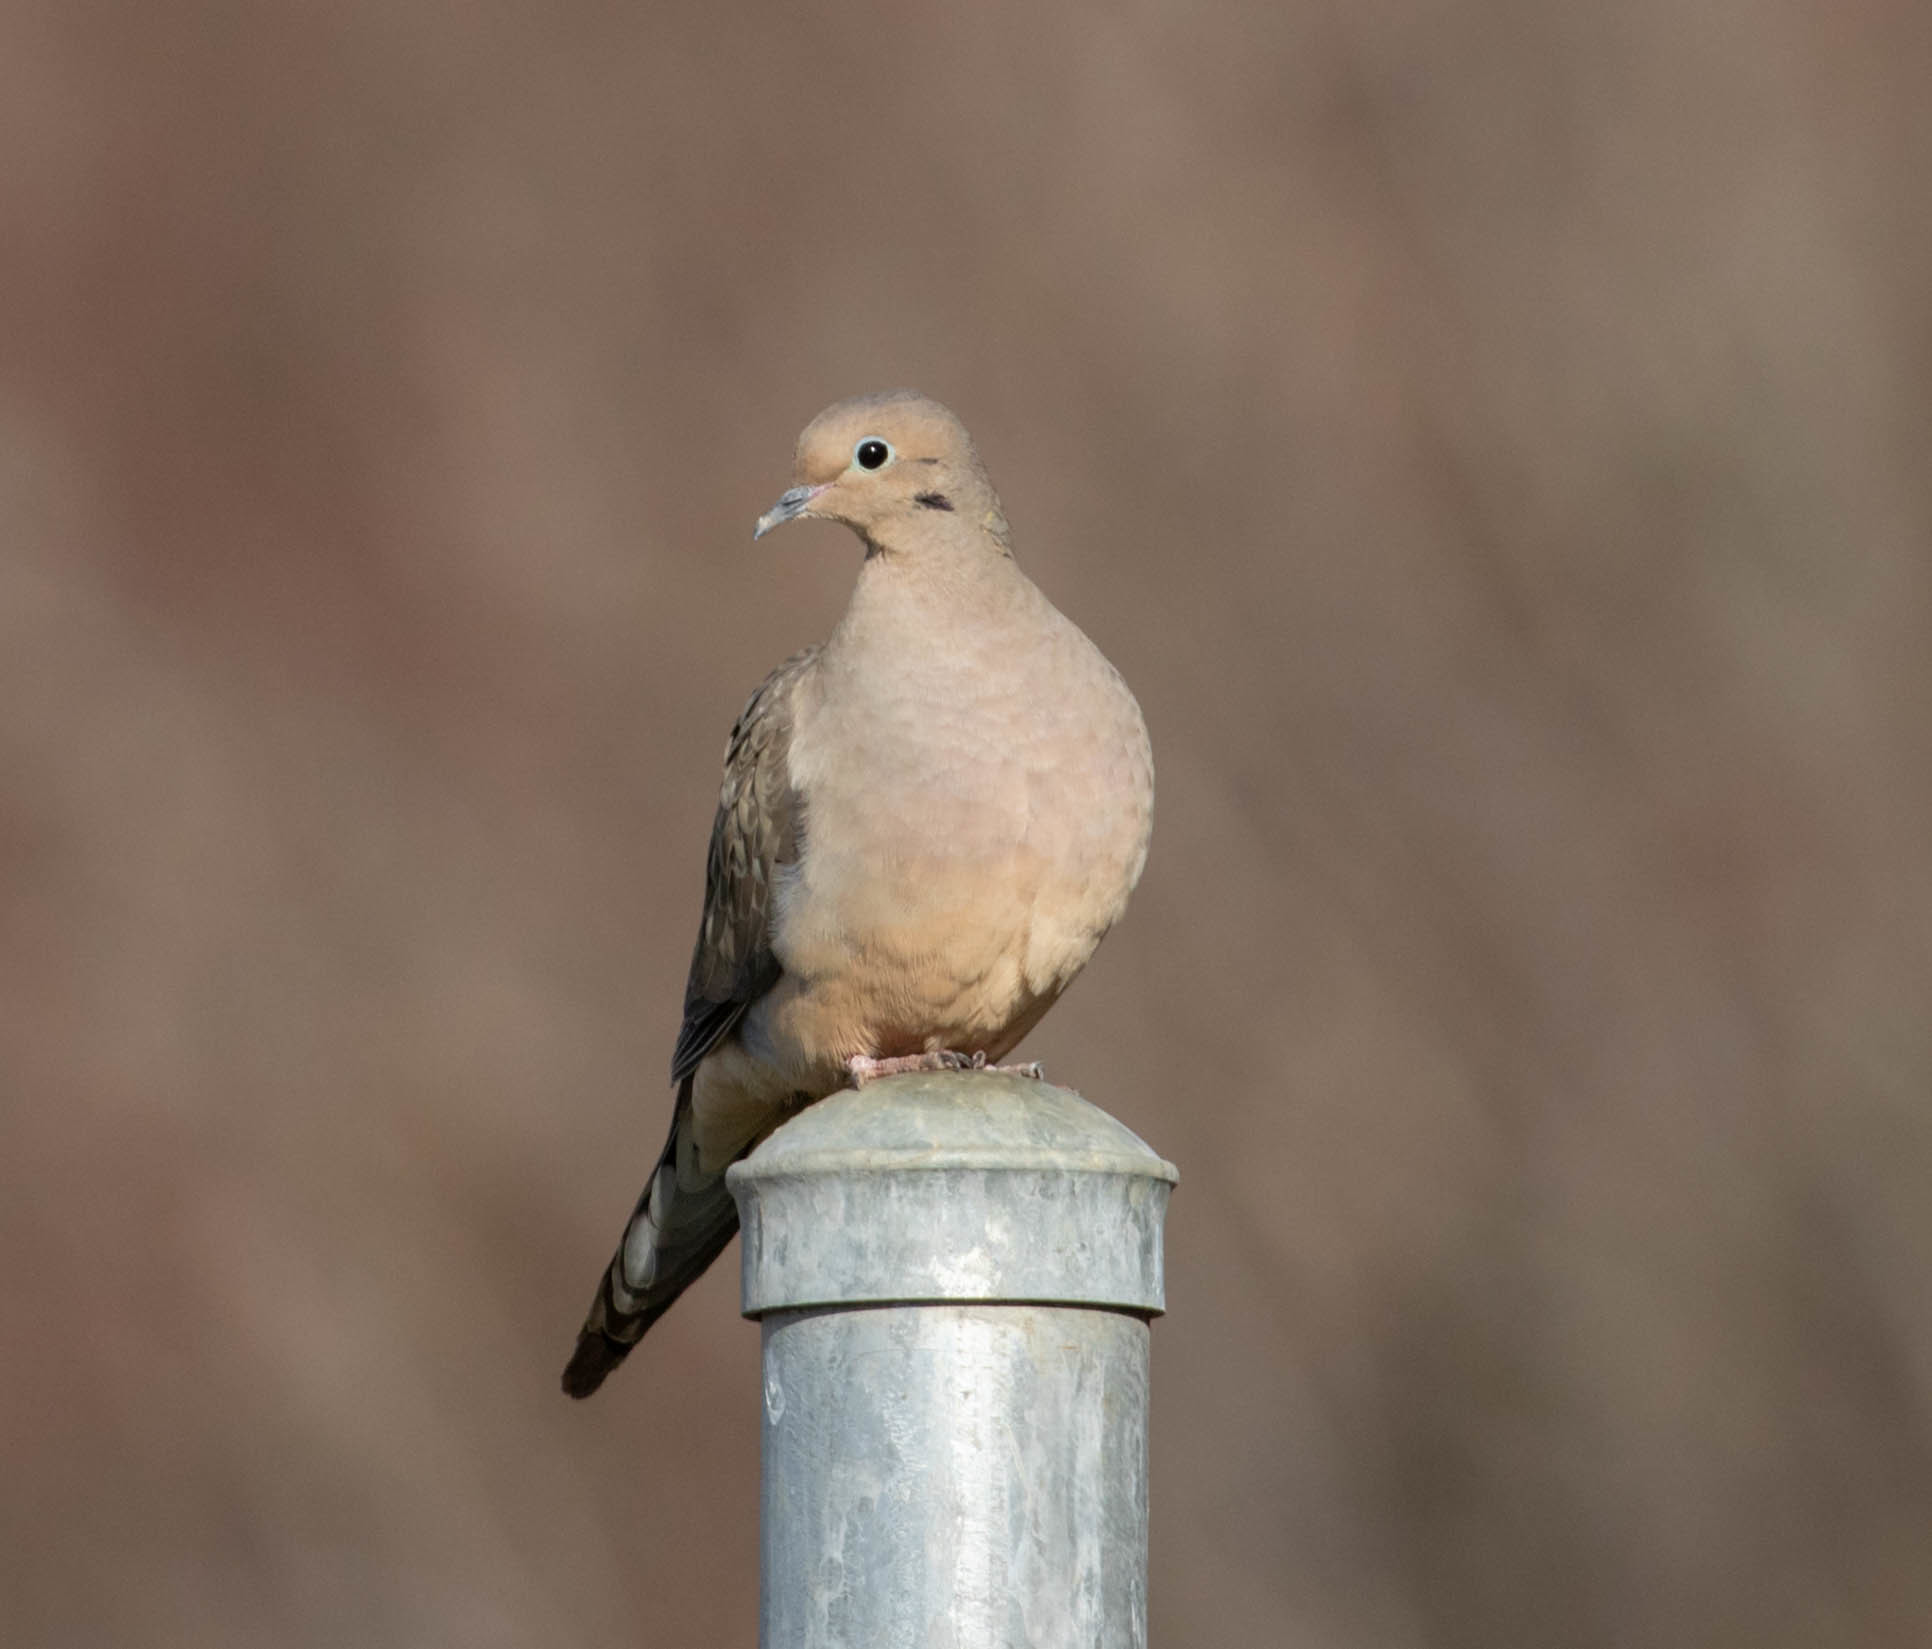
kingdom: Animalia
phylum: Chordata
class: Aves
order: Columbiformes
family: Columbidae
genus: Zenaida
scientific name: Zenaida macroura
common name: Mourning dove
